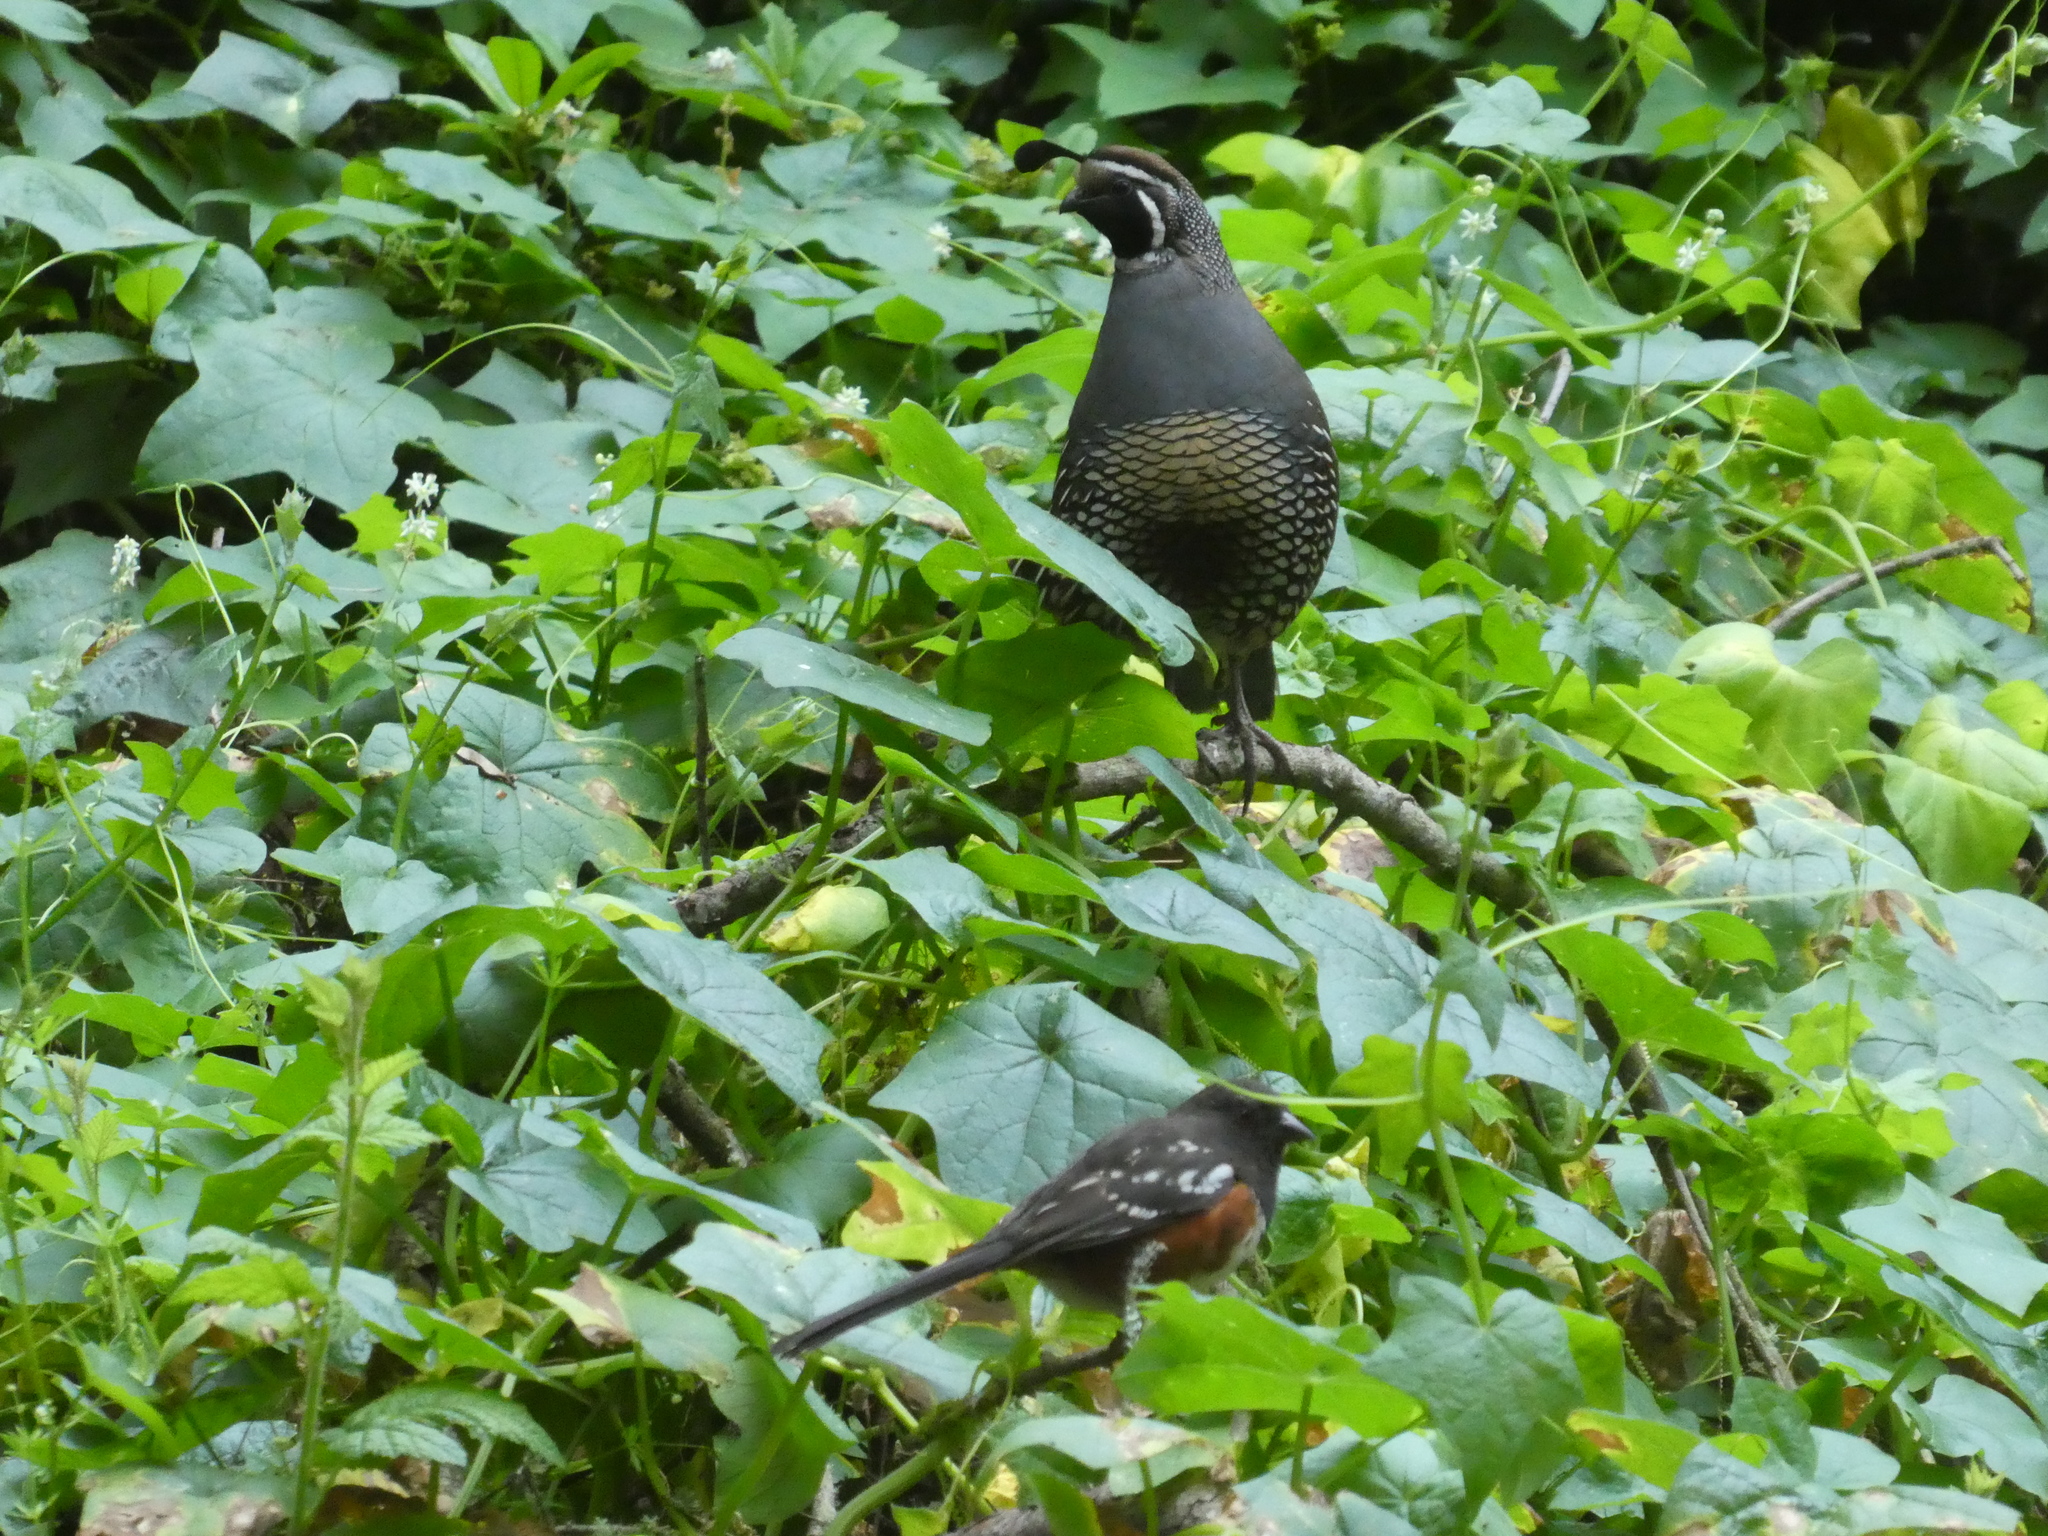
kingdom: Animalia
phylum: Chordata
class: Aves
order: Galliformes
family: Odontophoridae
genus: Callipepla
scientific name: Callipepla californica
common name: California quail
